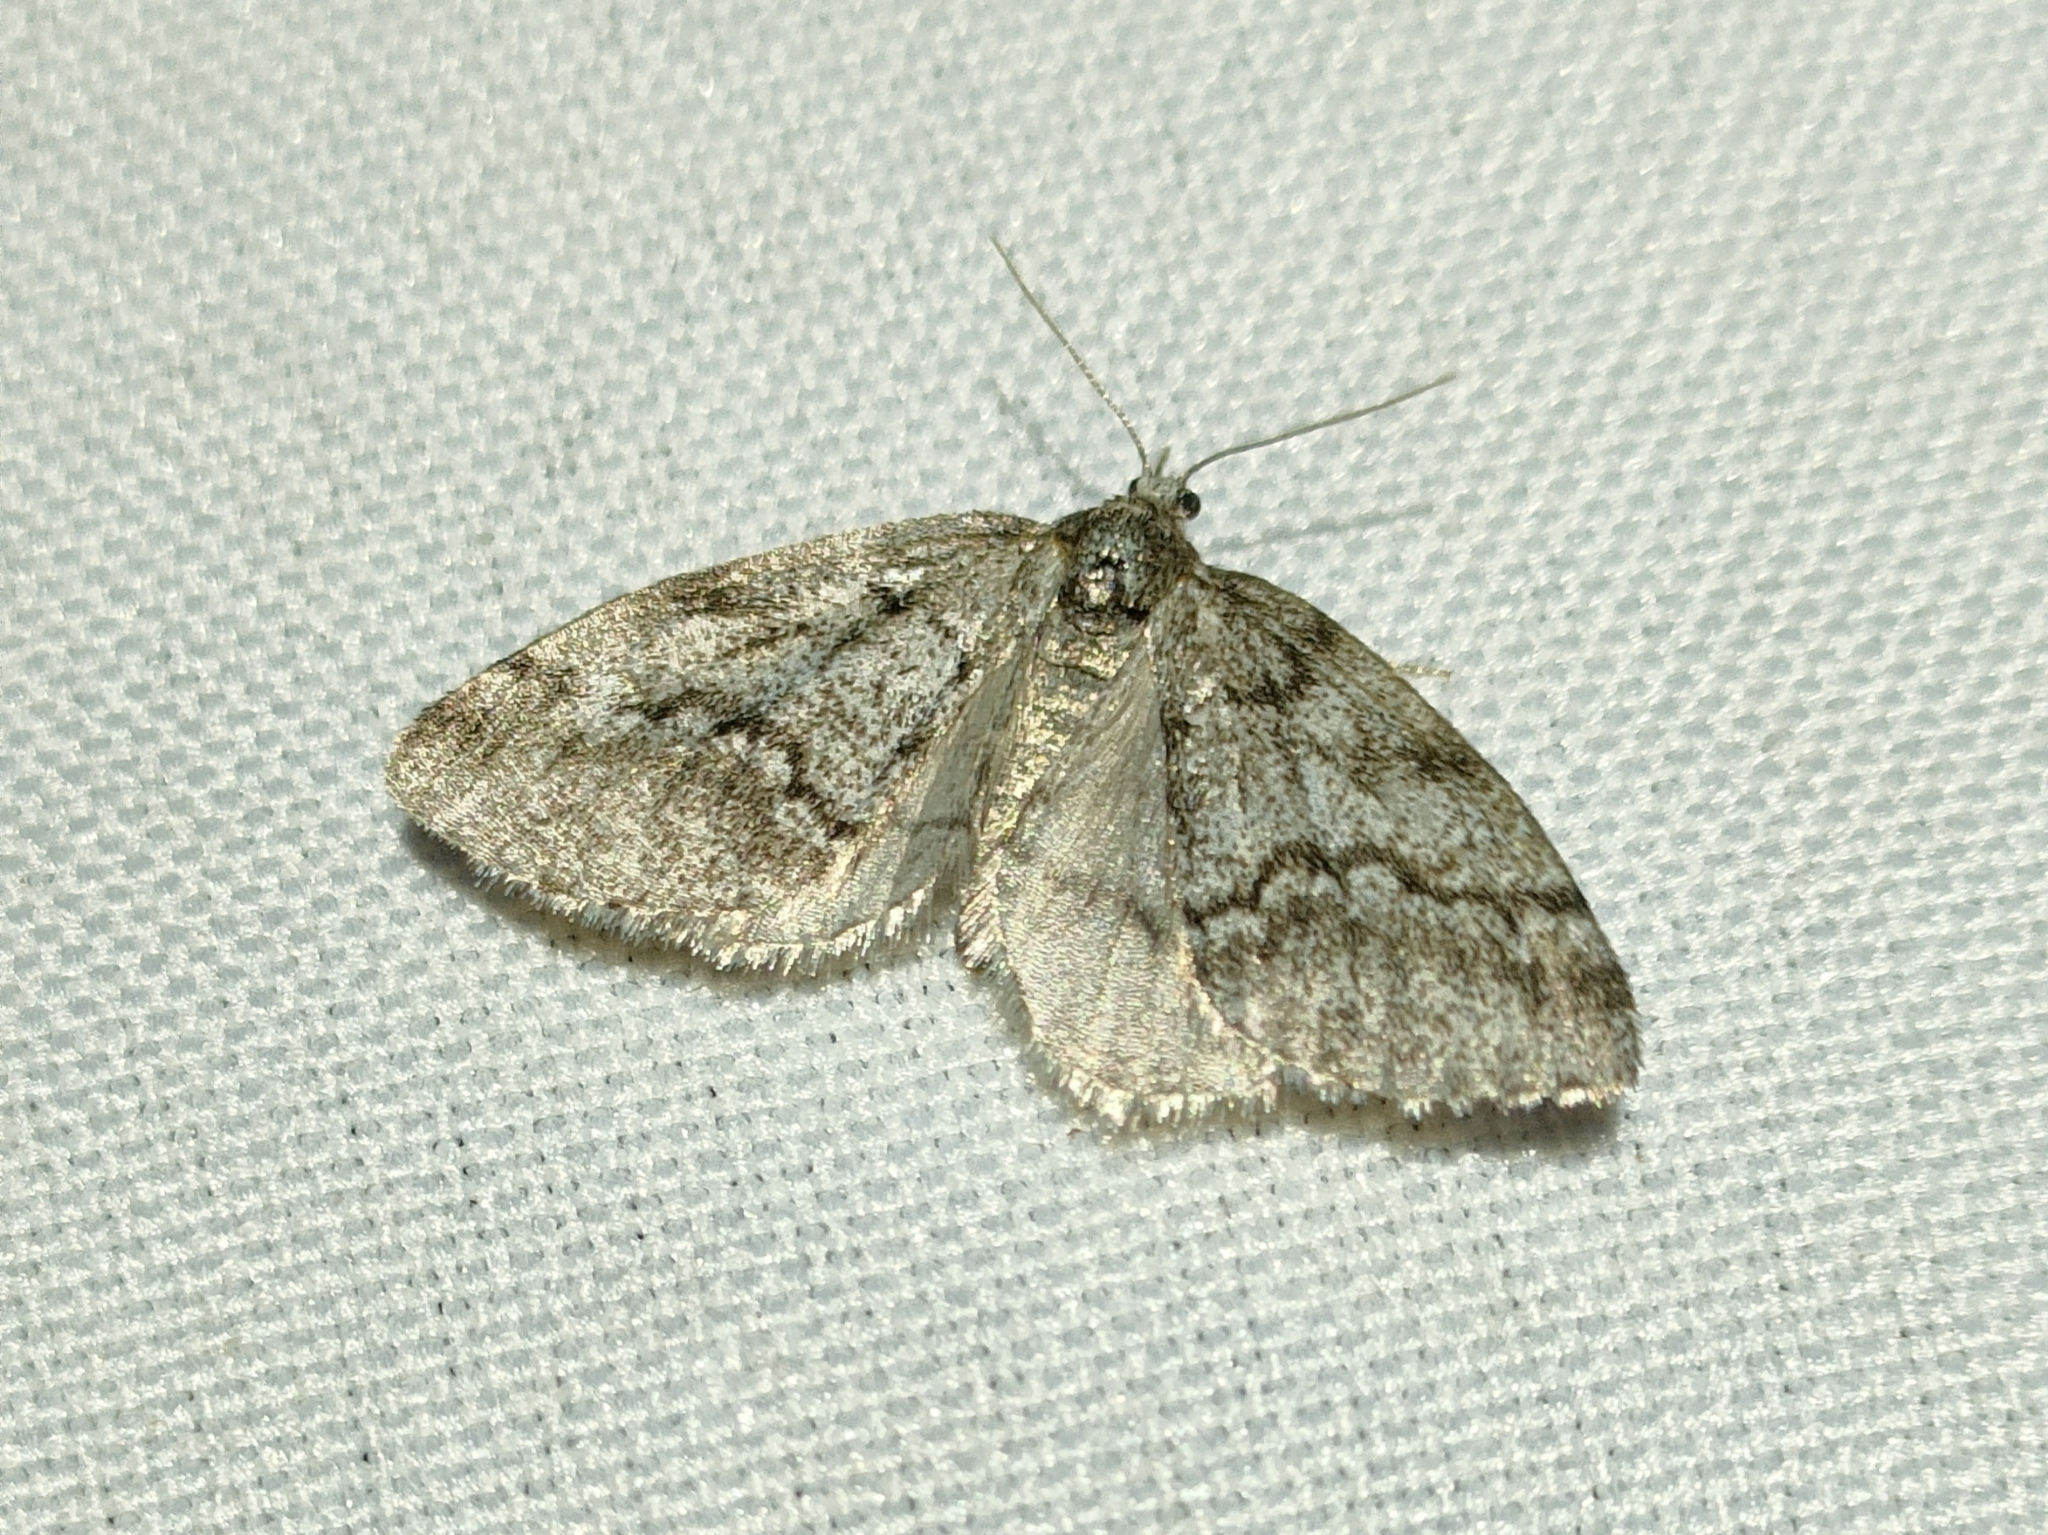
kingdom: Animalia
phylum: Arthropoda
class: Insecta
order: Lepidoptera
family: Geometridae
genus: Tephronia
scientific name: Tephronia lhommaria
